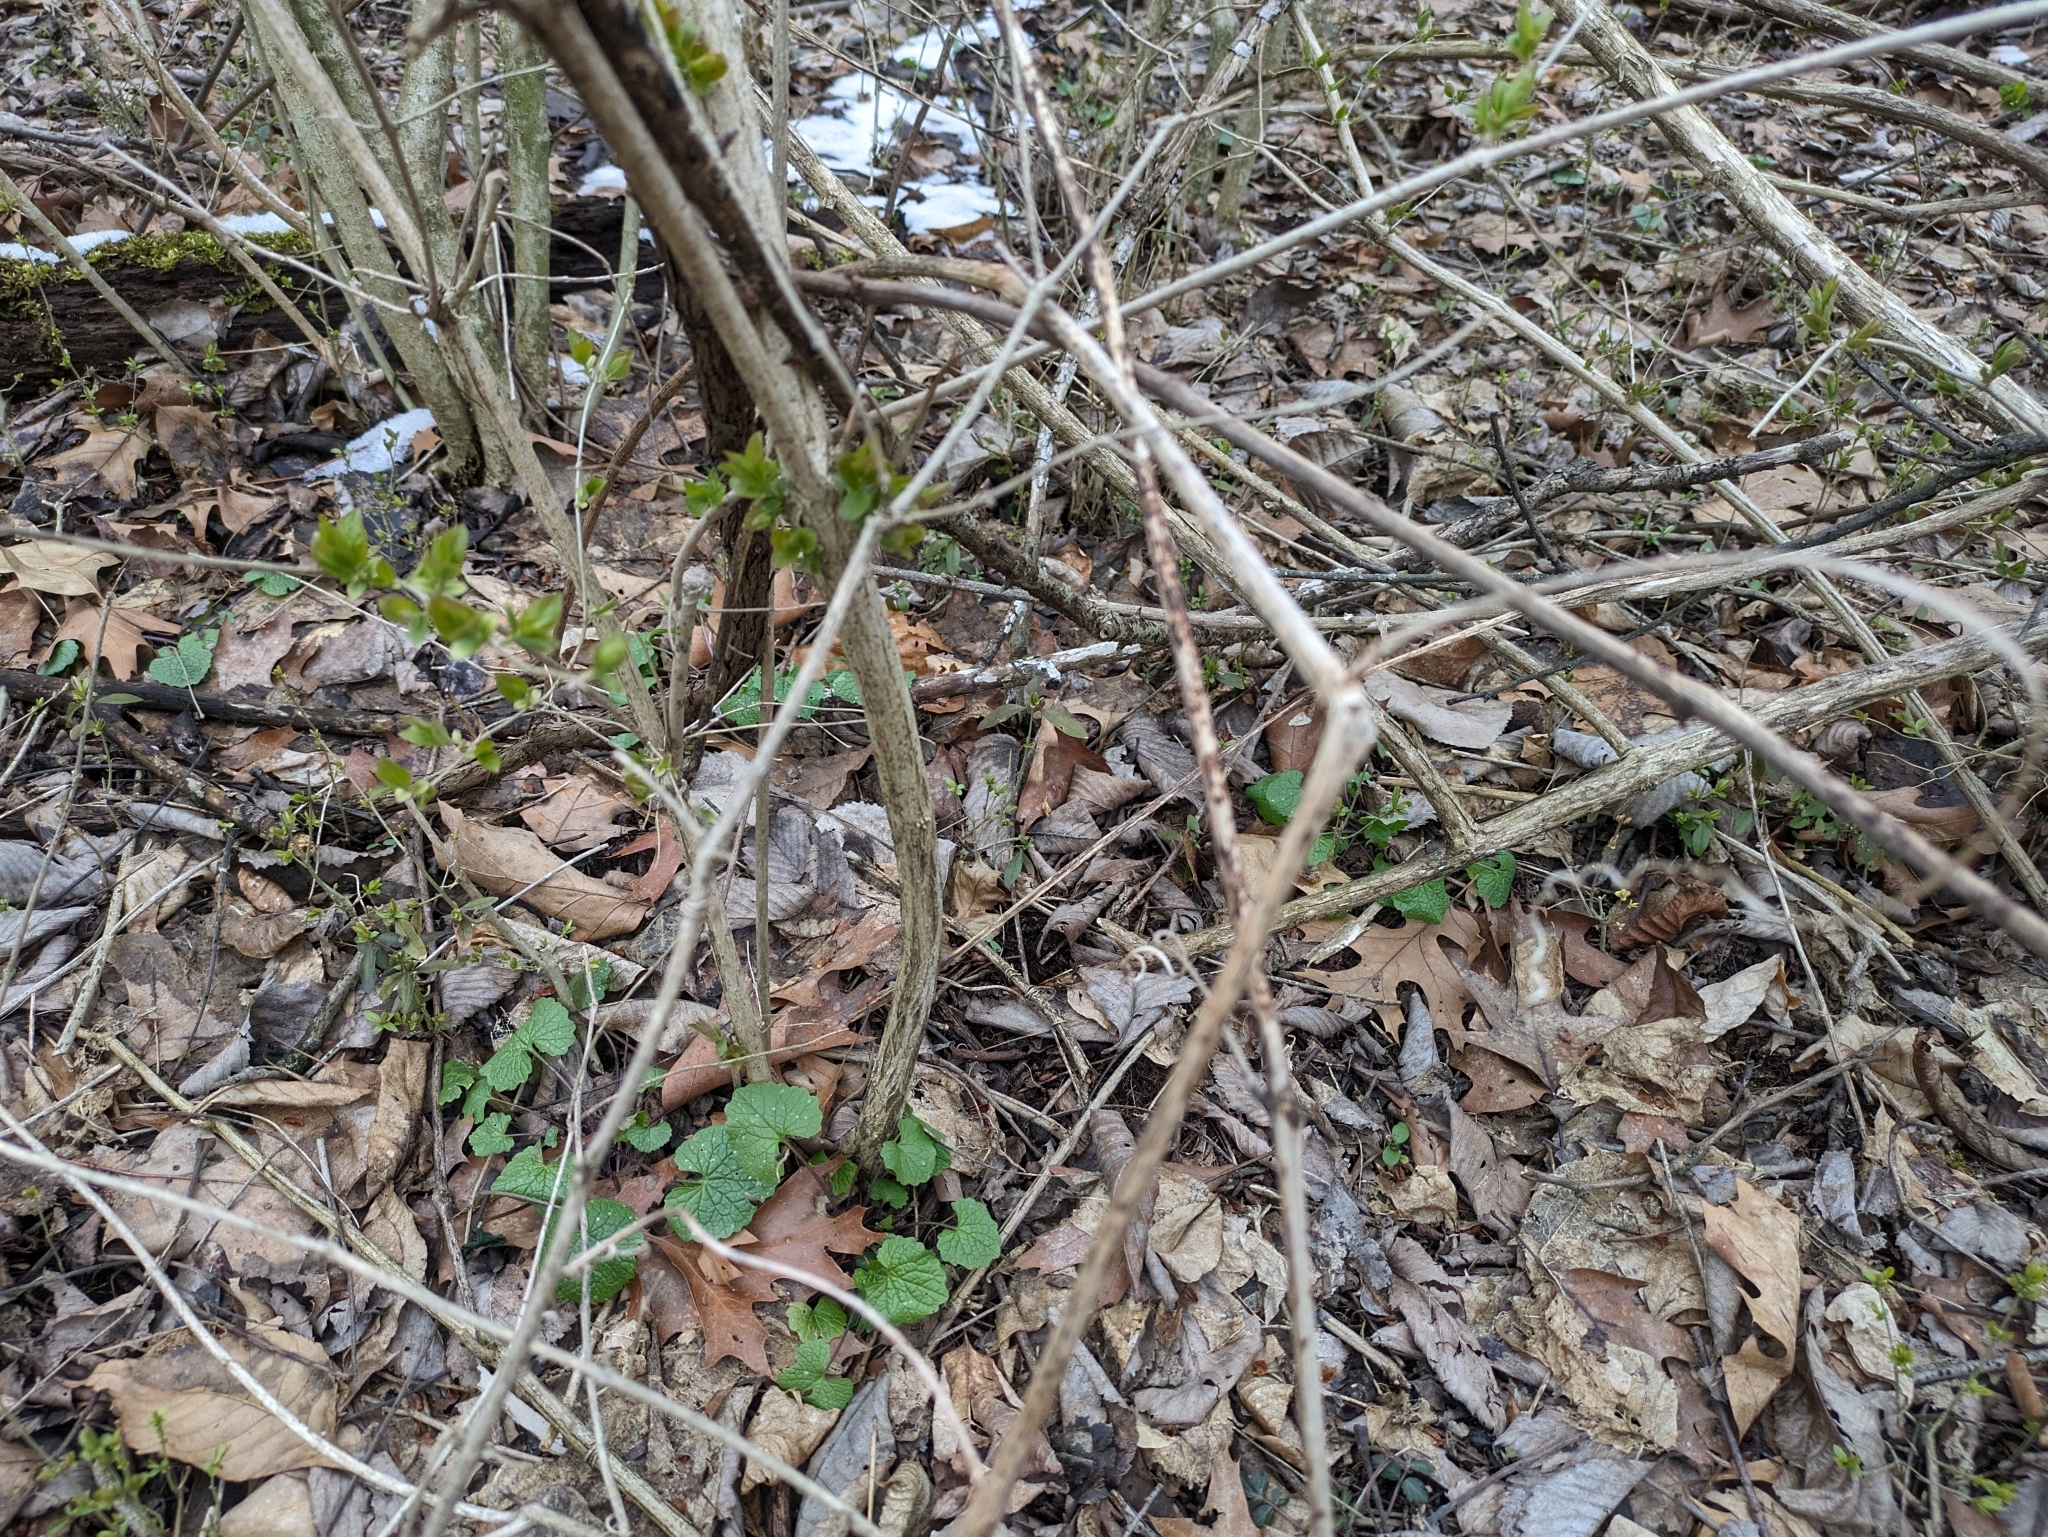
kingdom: Plantae
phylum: Tracheophyta
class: Magnoliopsida
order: Brassicales
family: Brassicaceae
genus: Alliaria
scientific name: Alliaria petiolata
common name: Garlic mustard
